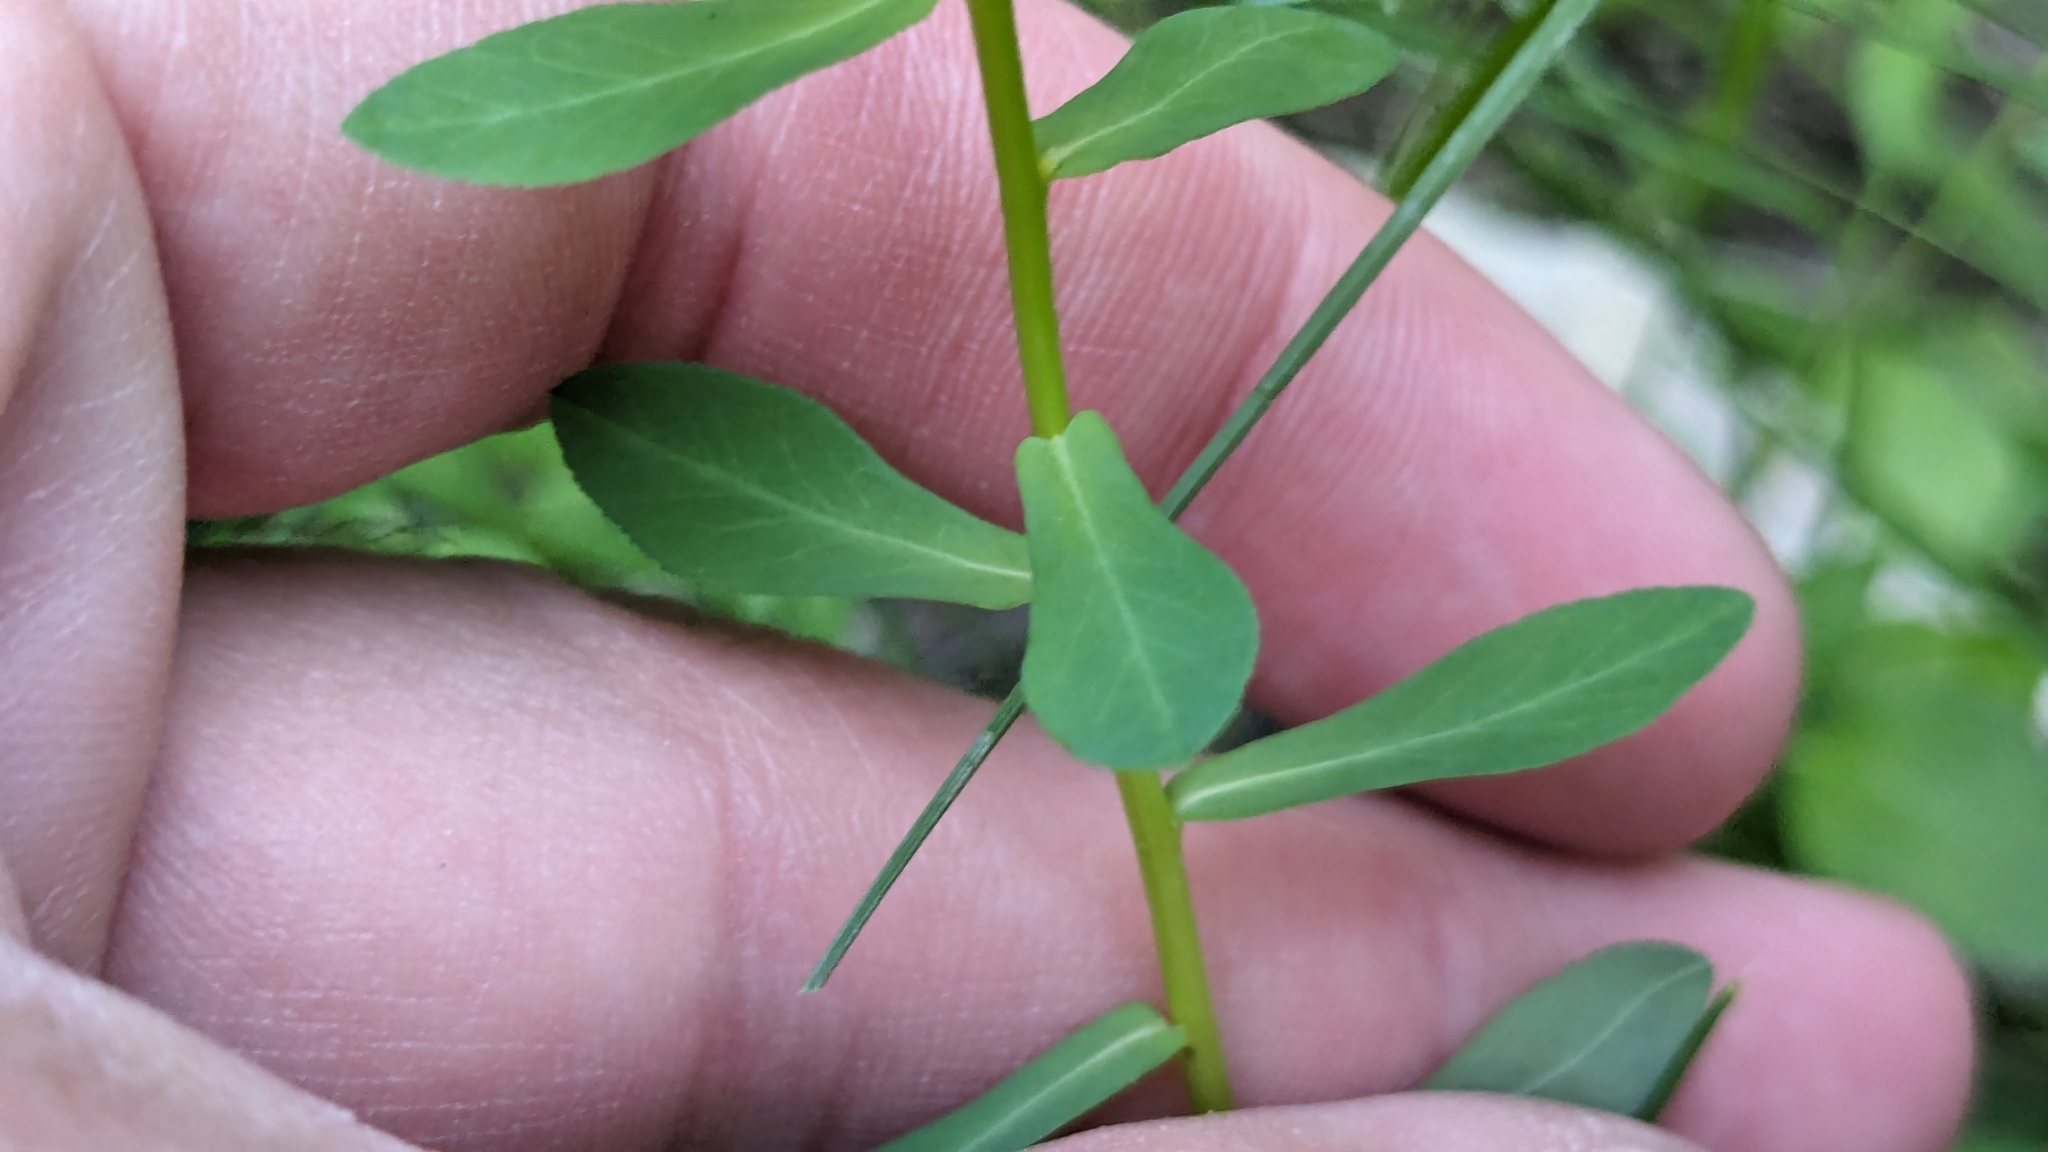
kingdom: Plantae
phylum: Tracheophyta
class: Magnoliopsida
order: Malpighiales
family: Euphorbiaceae
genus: Euphorbia
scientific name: Euphorbia spathulata
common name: Blunt spurge
